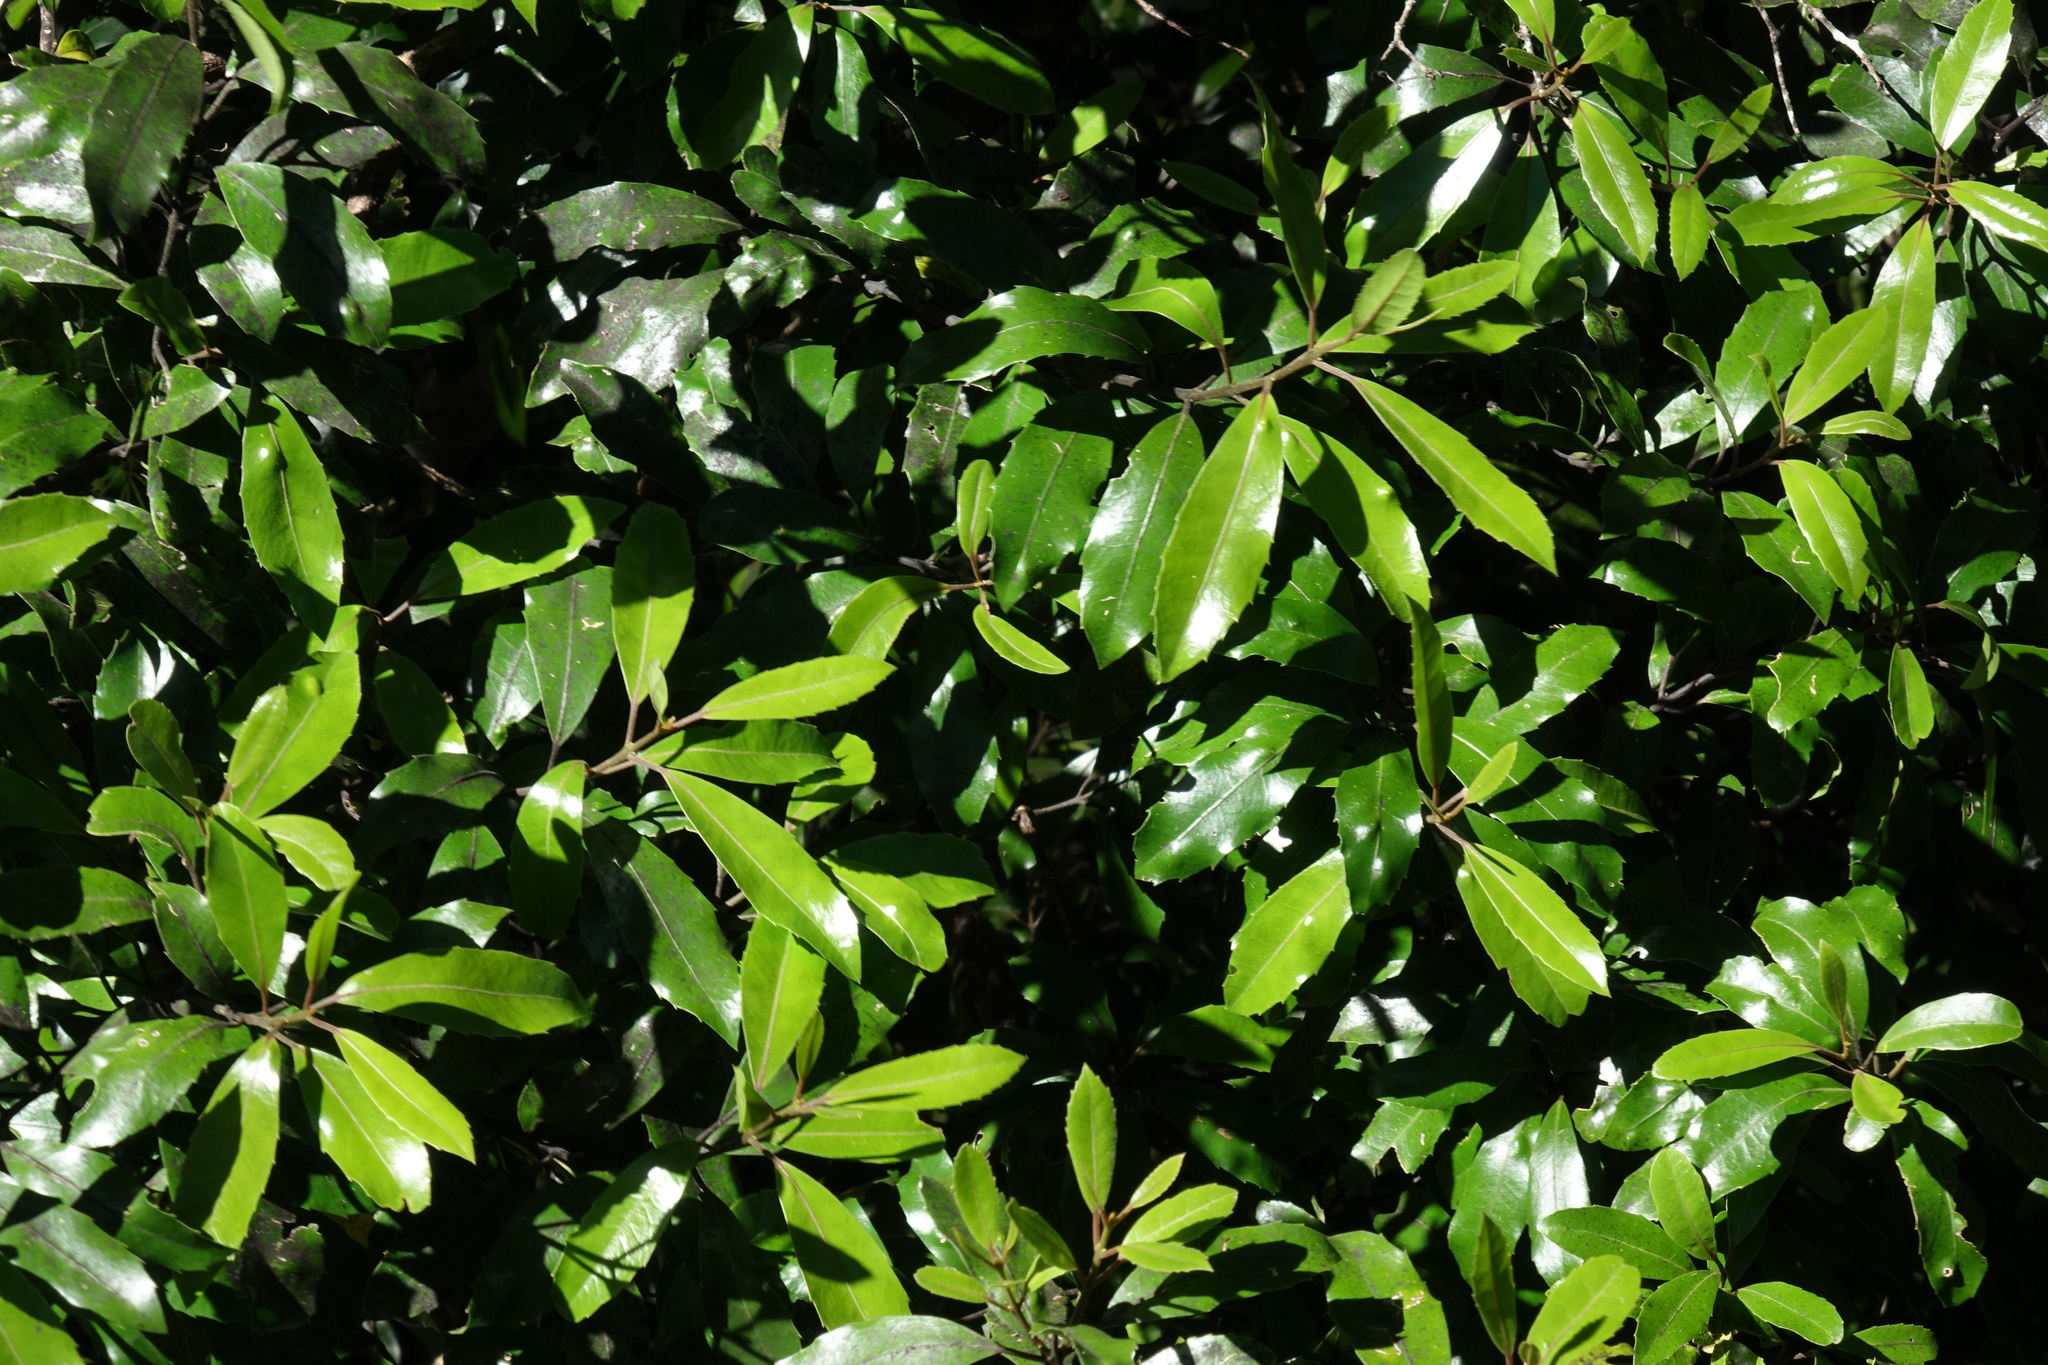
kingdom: Plantae
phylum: Tracheophyta
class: Magnoliopsida
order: Laurales
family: Monimiaceae
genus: Hedycarya
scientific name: Hedycarya arborea
